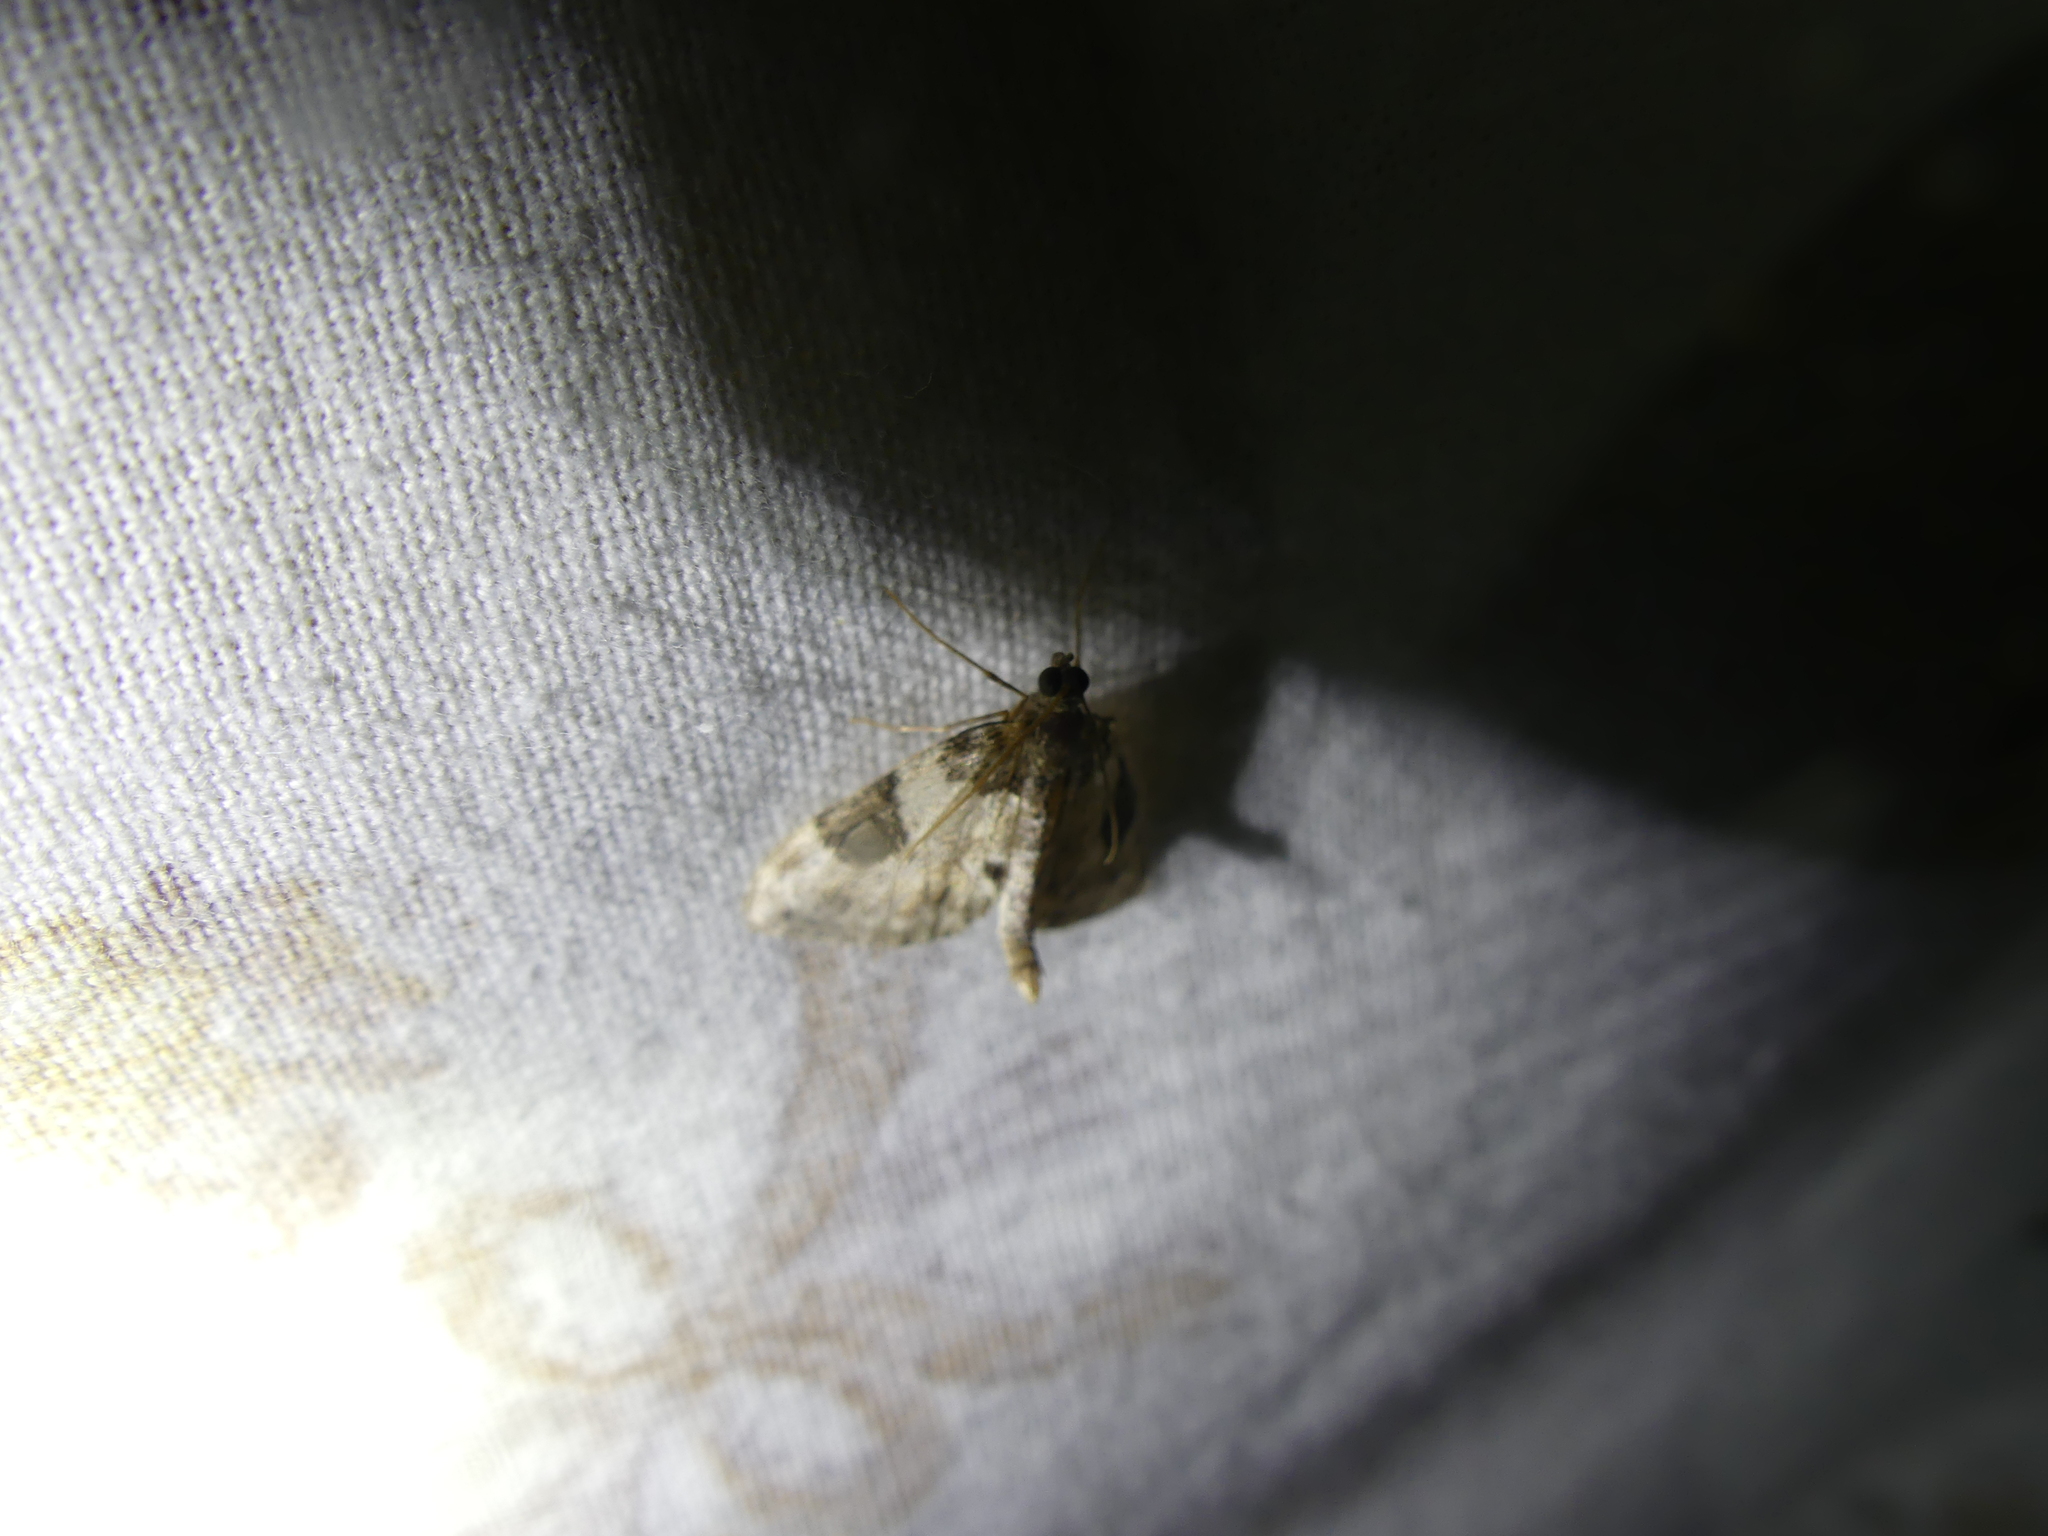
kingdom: Animalia
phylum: Arthropoda
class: Insecta
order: Lepidoptera
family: Geometridae
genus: Thera
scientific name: Thera vetustata
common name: Fir carpet
